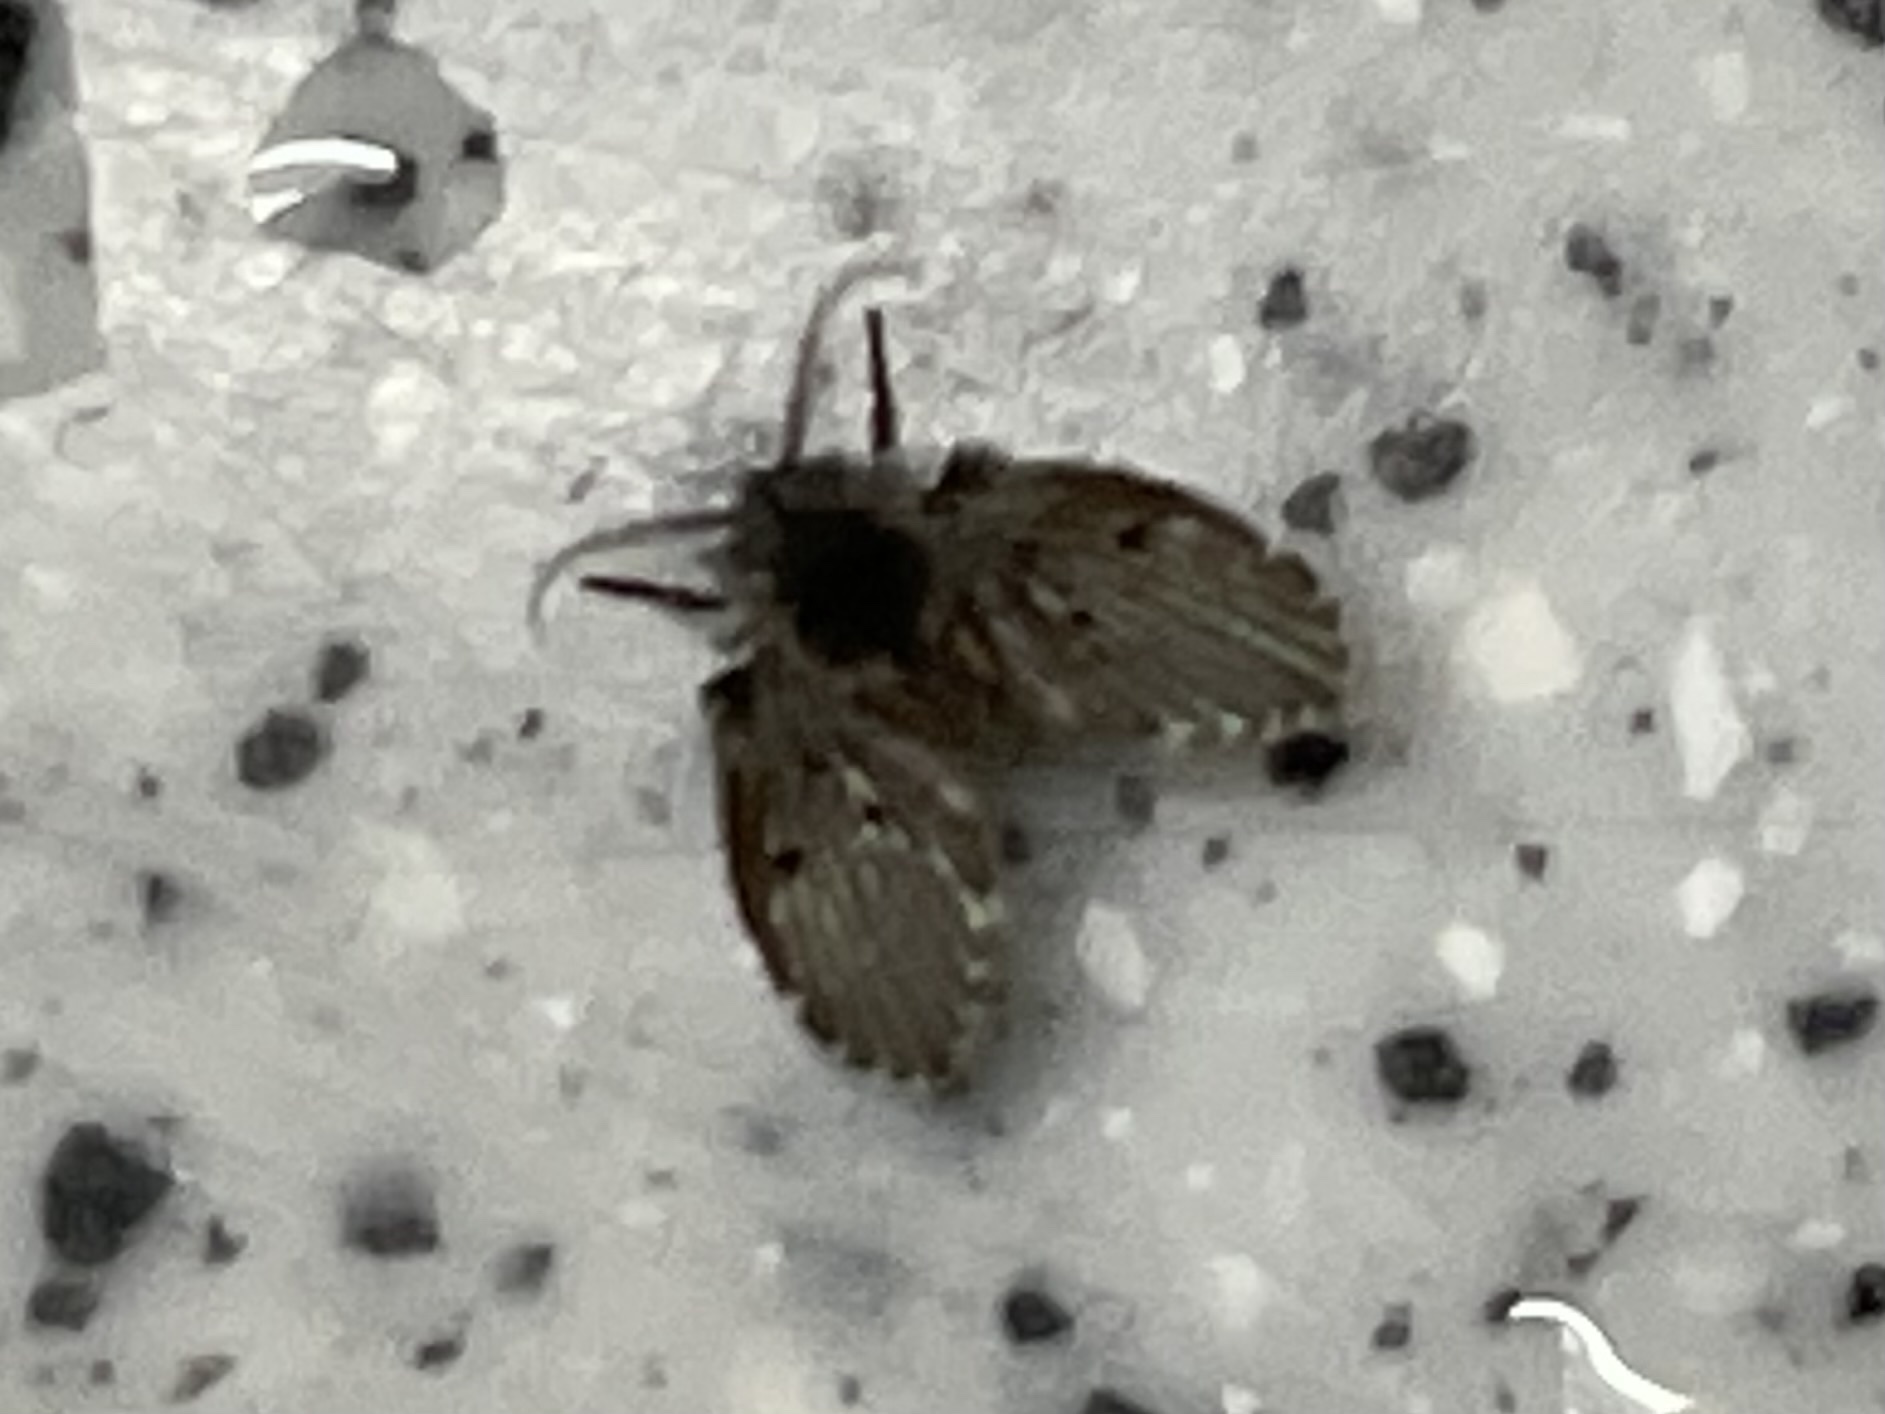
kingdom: Animalia
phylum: Arthropoda
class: Insecta
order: Diptera
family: Psychodidae
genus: Clogmia
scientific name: Clogmia albipunctatus
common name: White-spotted moth fly
